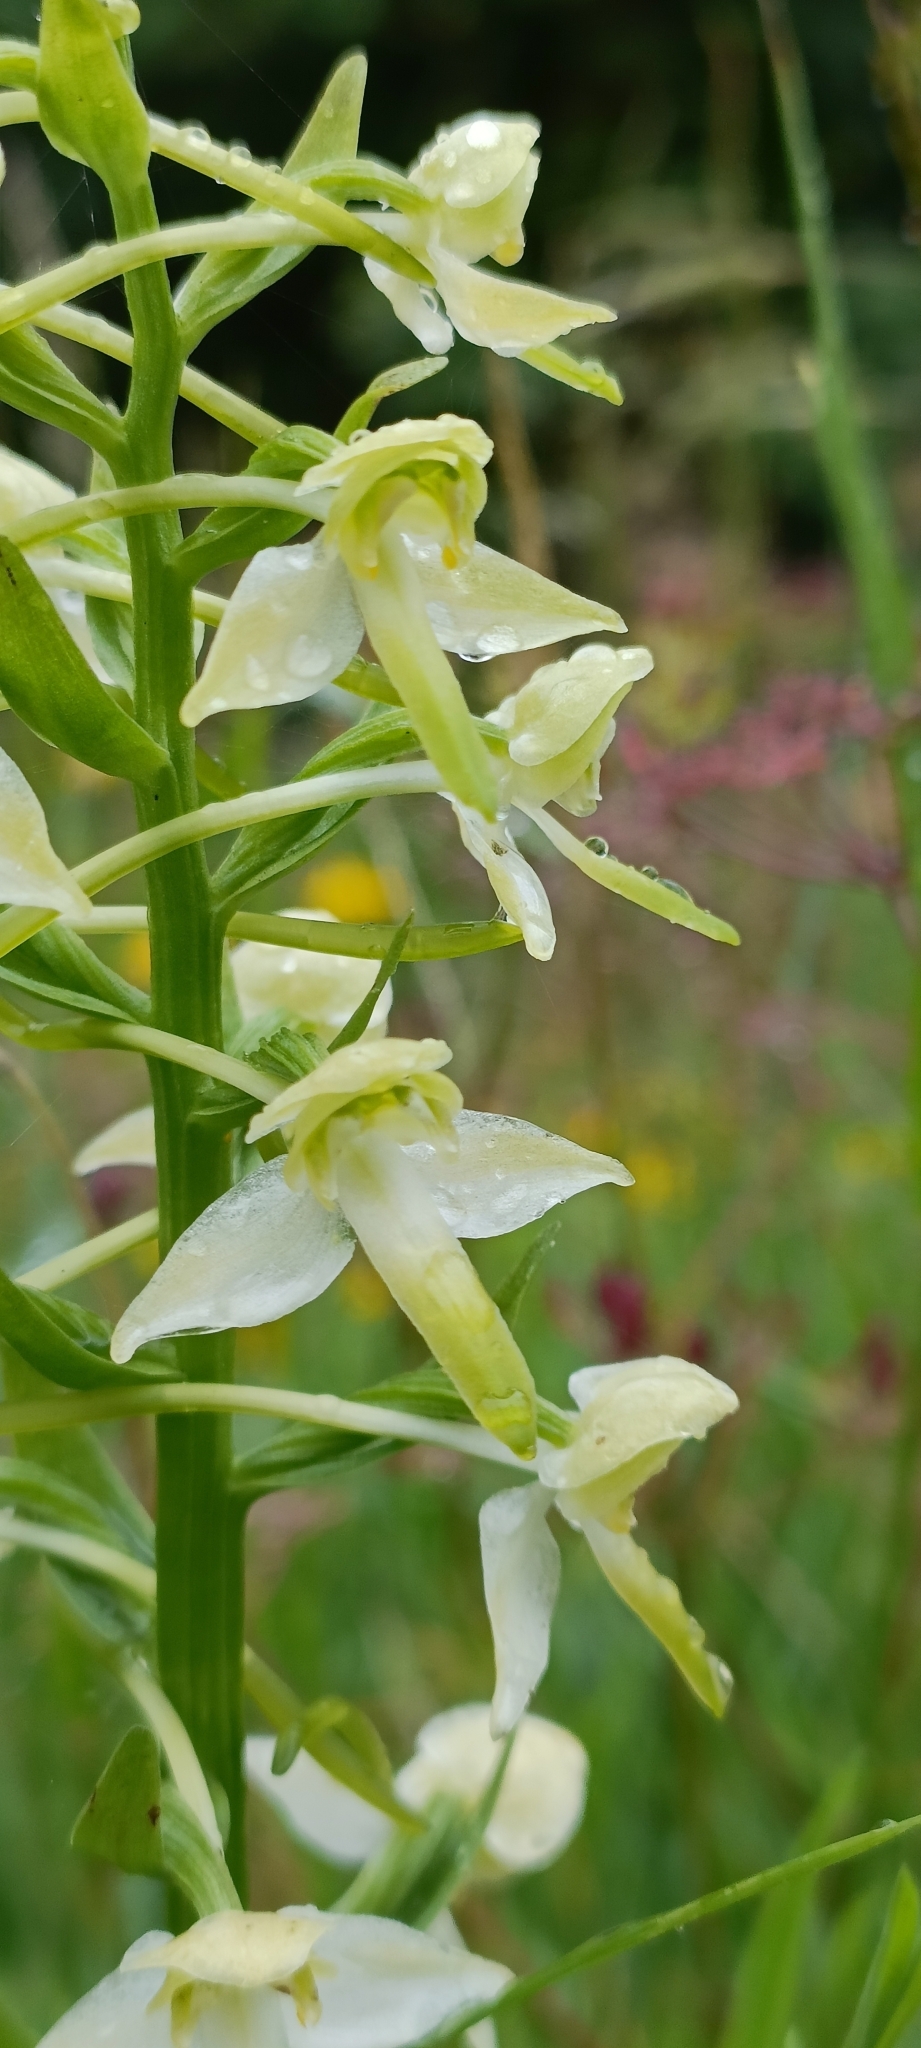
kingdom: Plantae
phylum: Tracheophyta
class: Liliopsida
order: Asparagales
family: Orchidaceae
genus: Platanthera
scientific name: Platanthera chlorantha
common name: Greater butterfly-orchid
